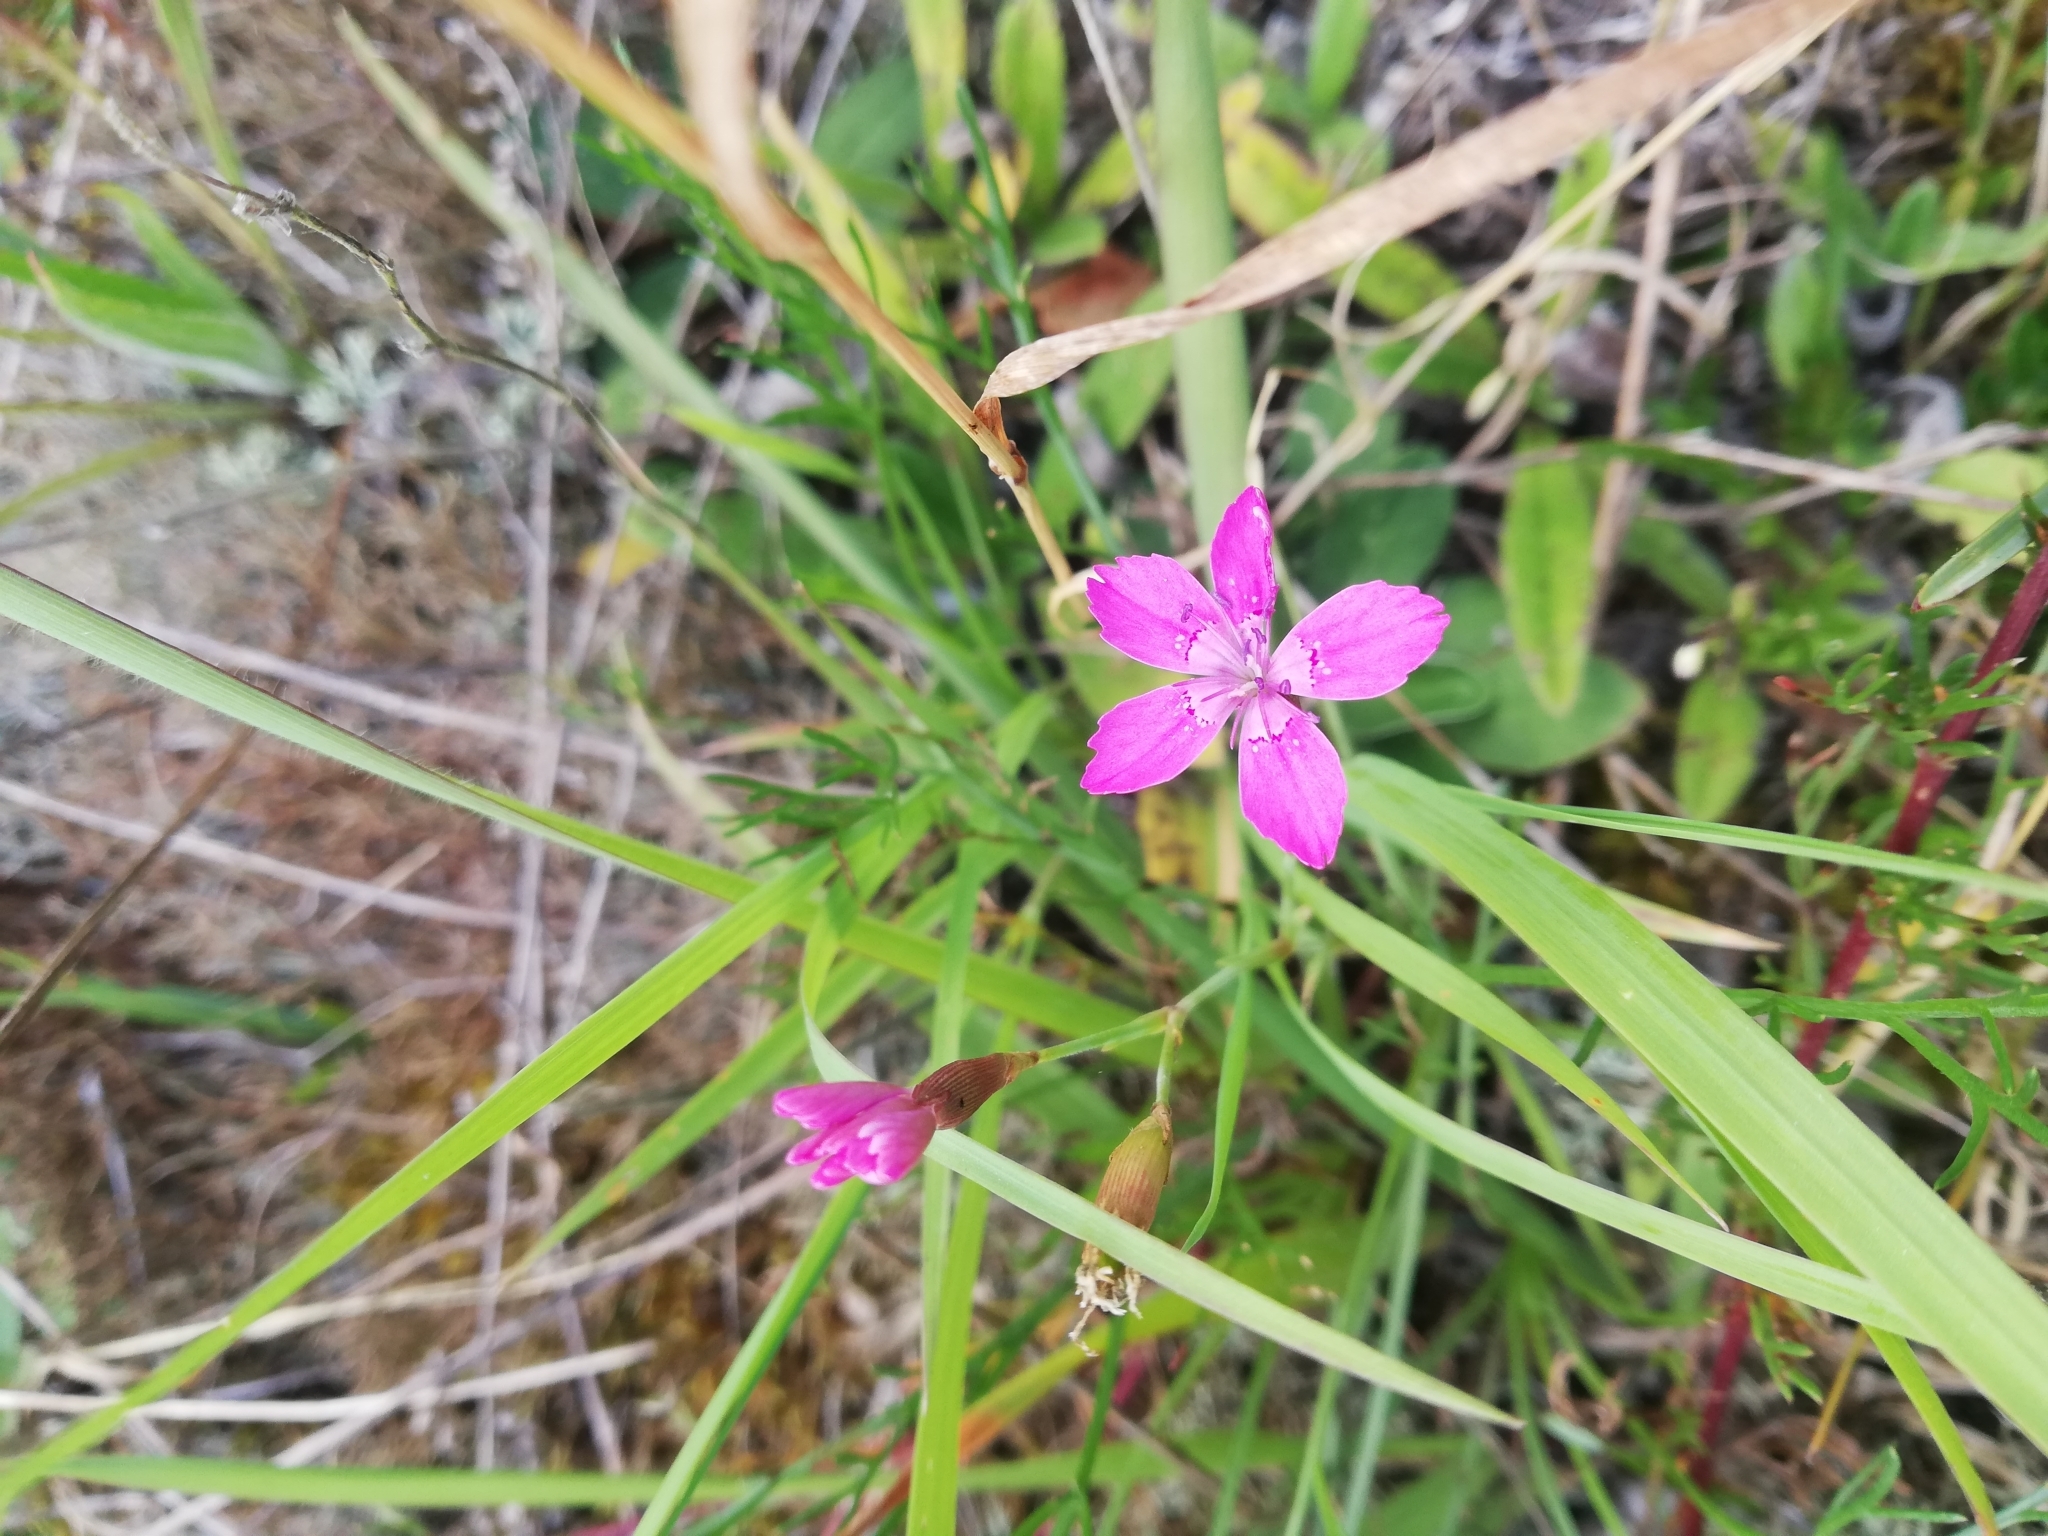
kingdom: Plantae
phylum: Tracheophyta
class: Magnoliopsida
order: Caryophyllales
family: Caryophyllaceae
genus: Dianthus
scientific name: Dianthus deltoides
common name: Maiden pink
